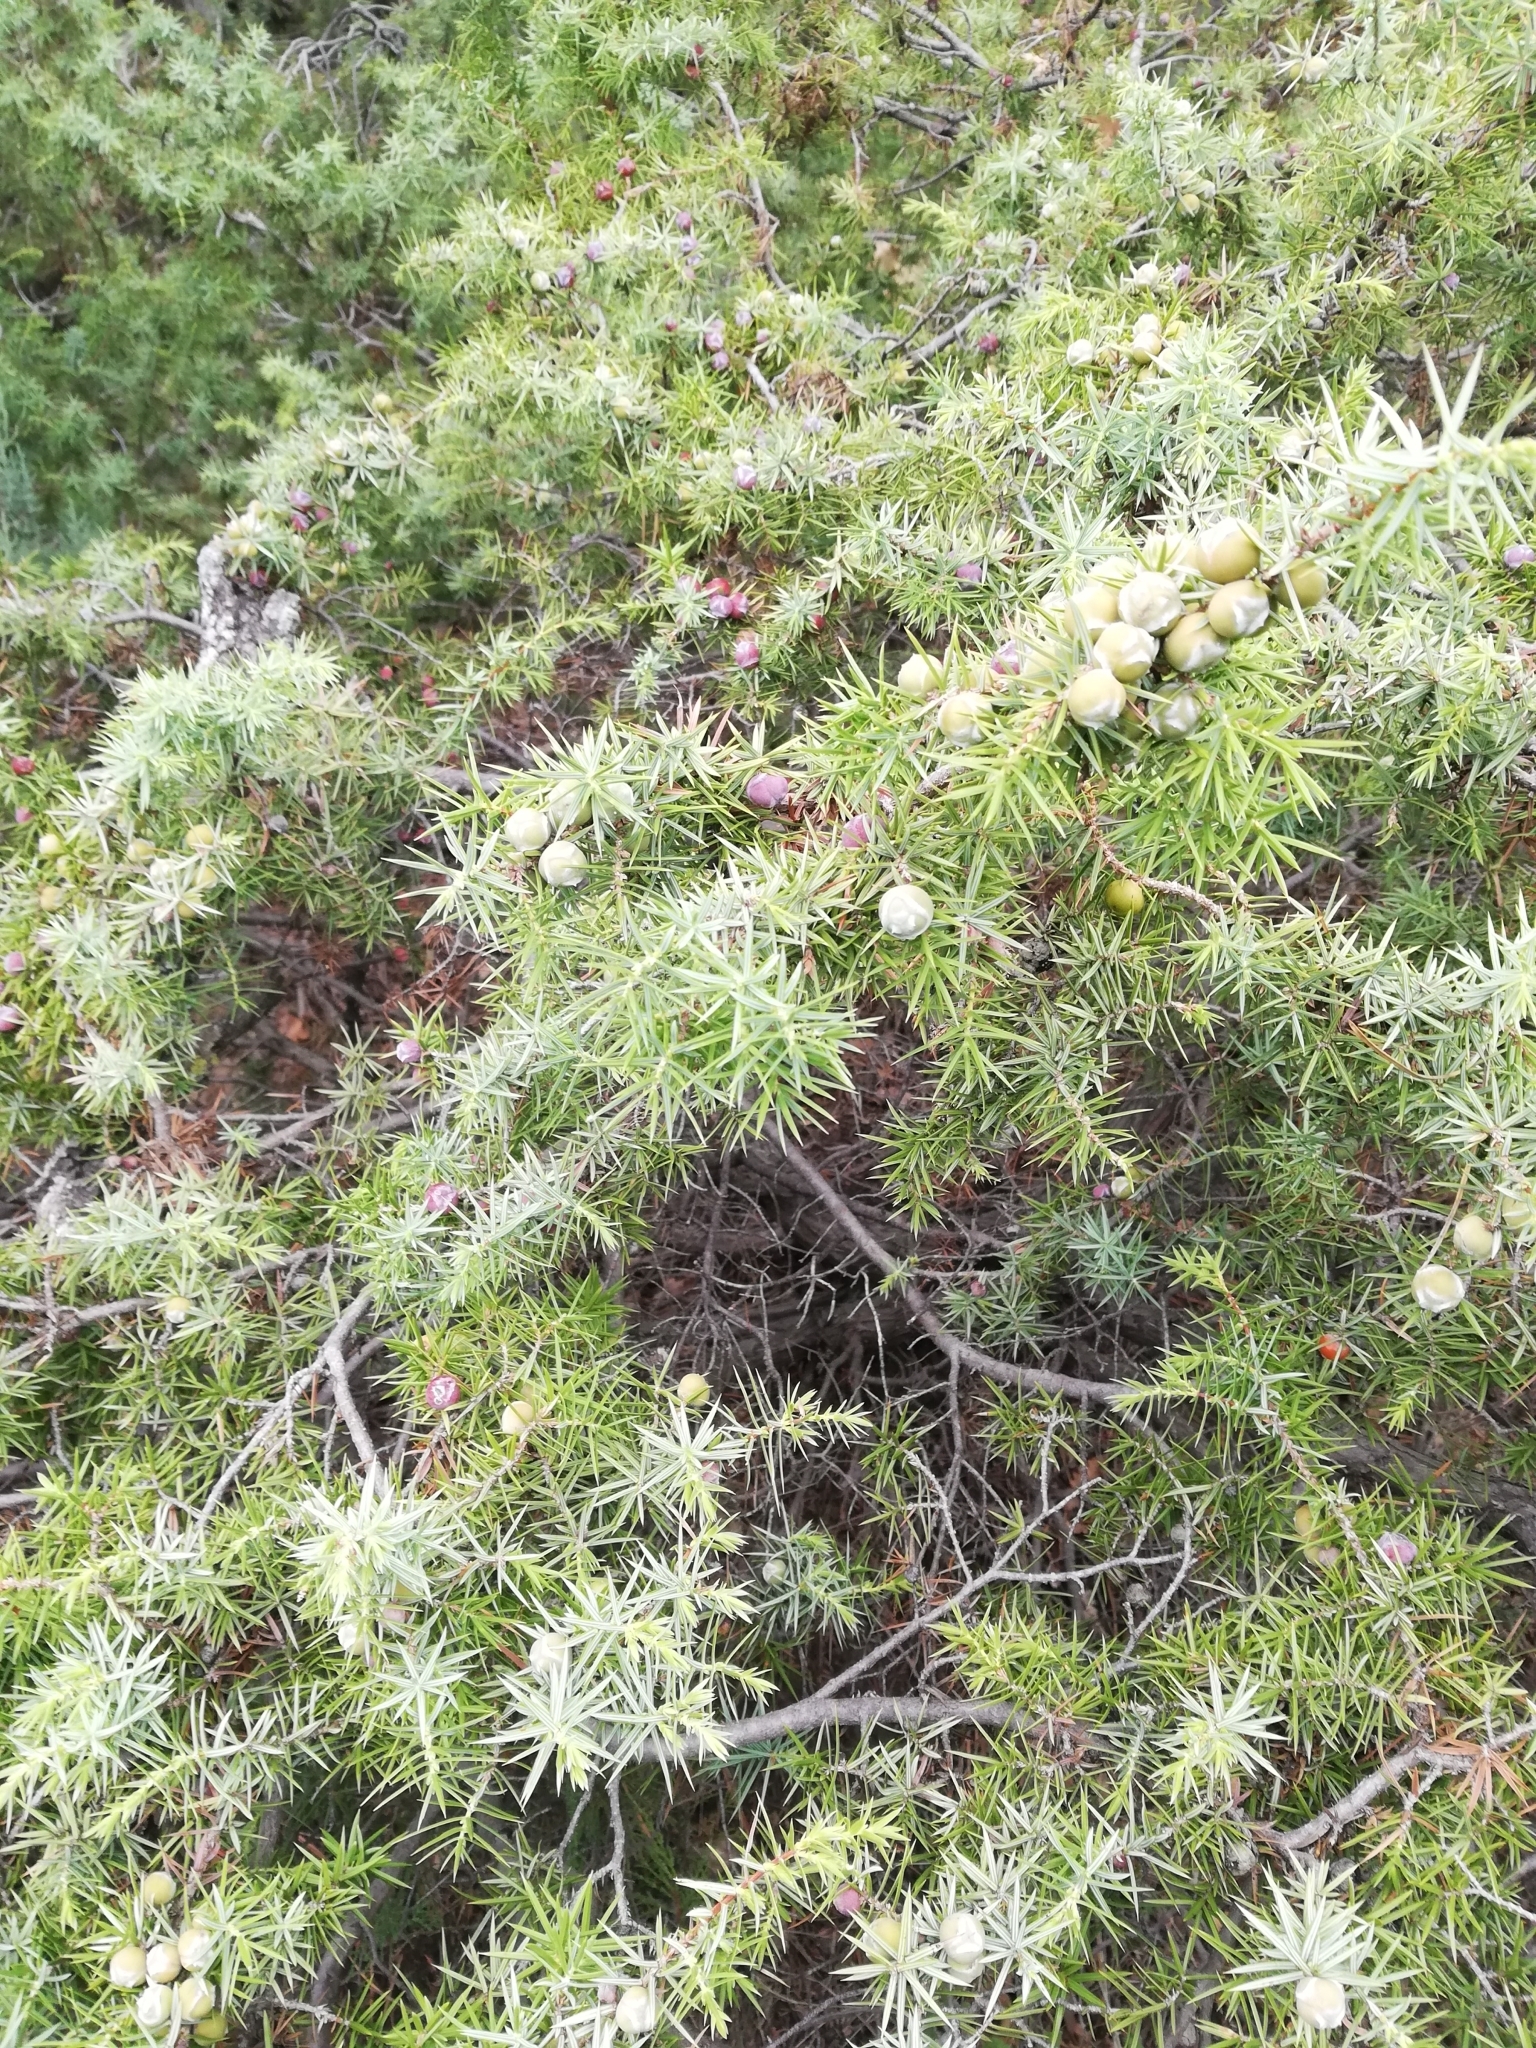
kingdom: Plantae
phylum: Tracheophyta
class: Pinopsida
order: Pinales
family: Cupressaceae
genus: Juniperus
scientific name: Juniperus oxycedrus
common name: Prickly juniper
